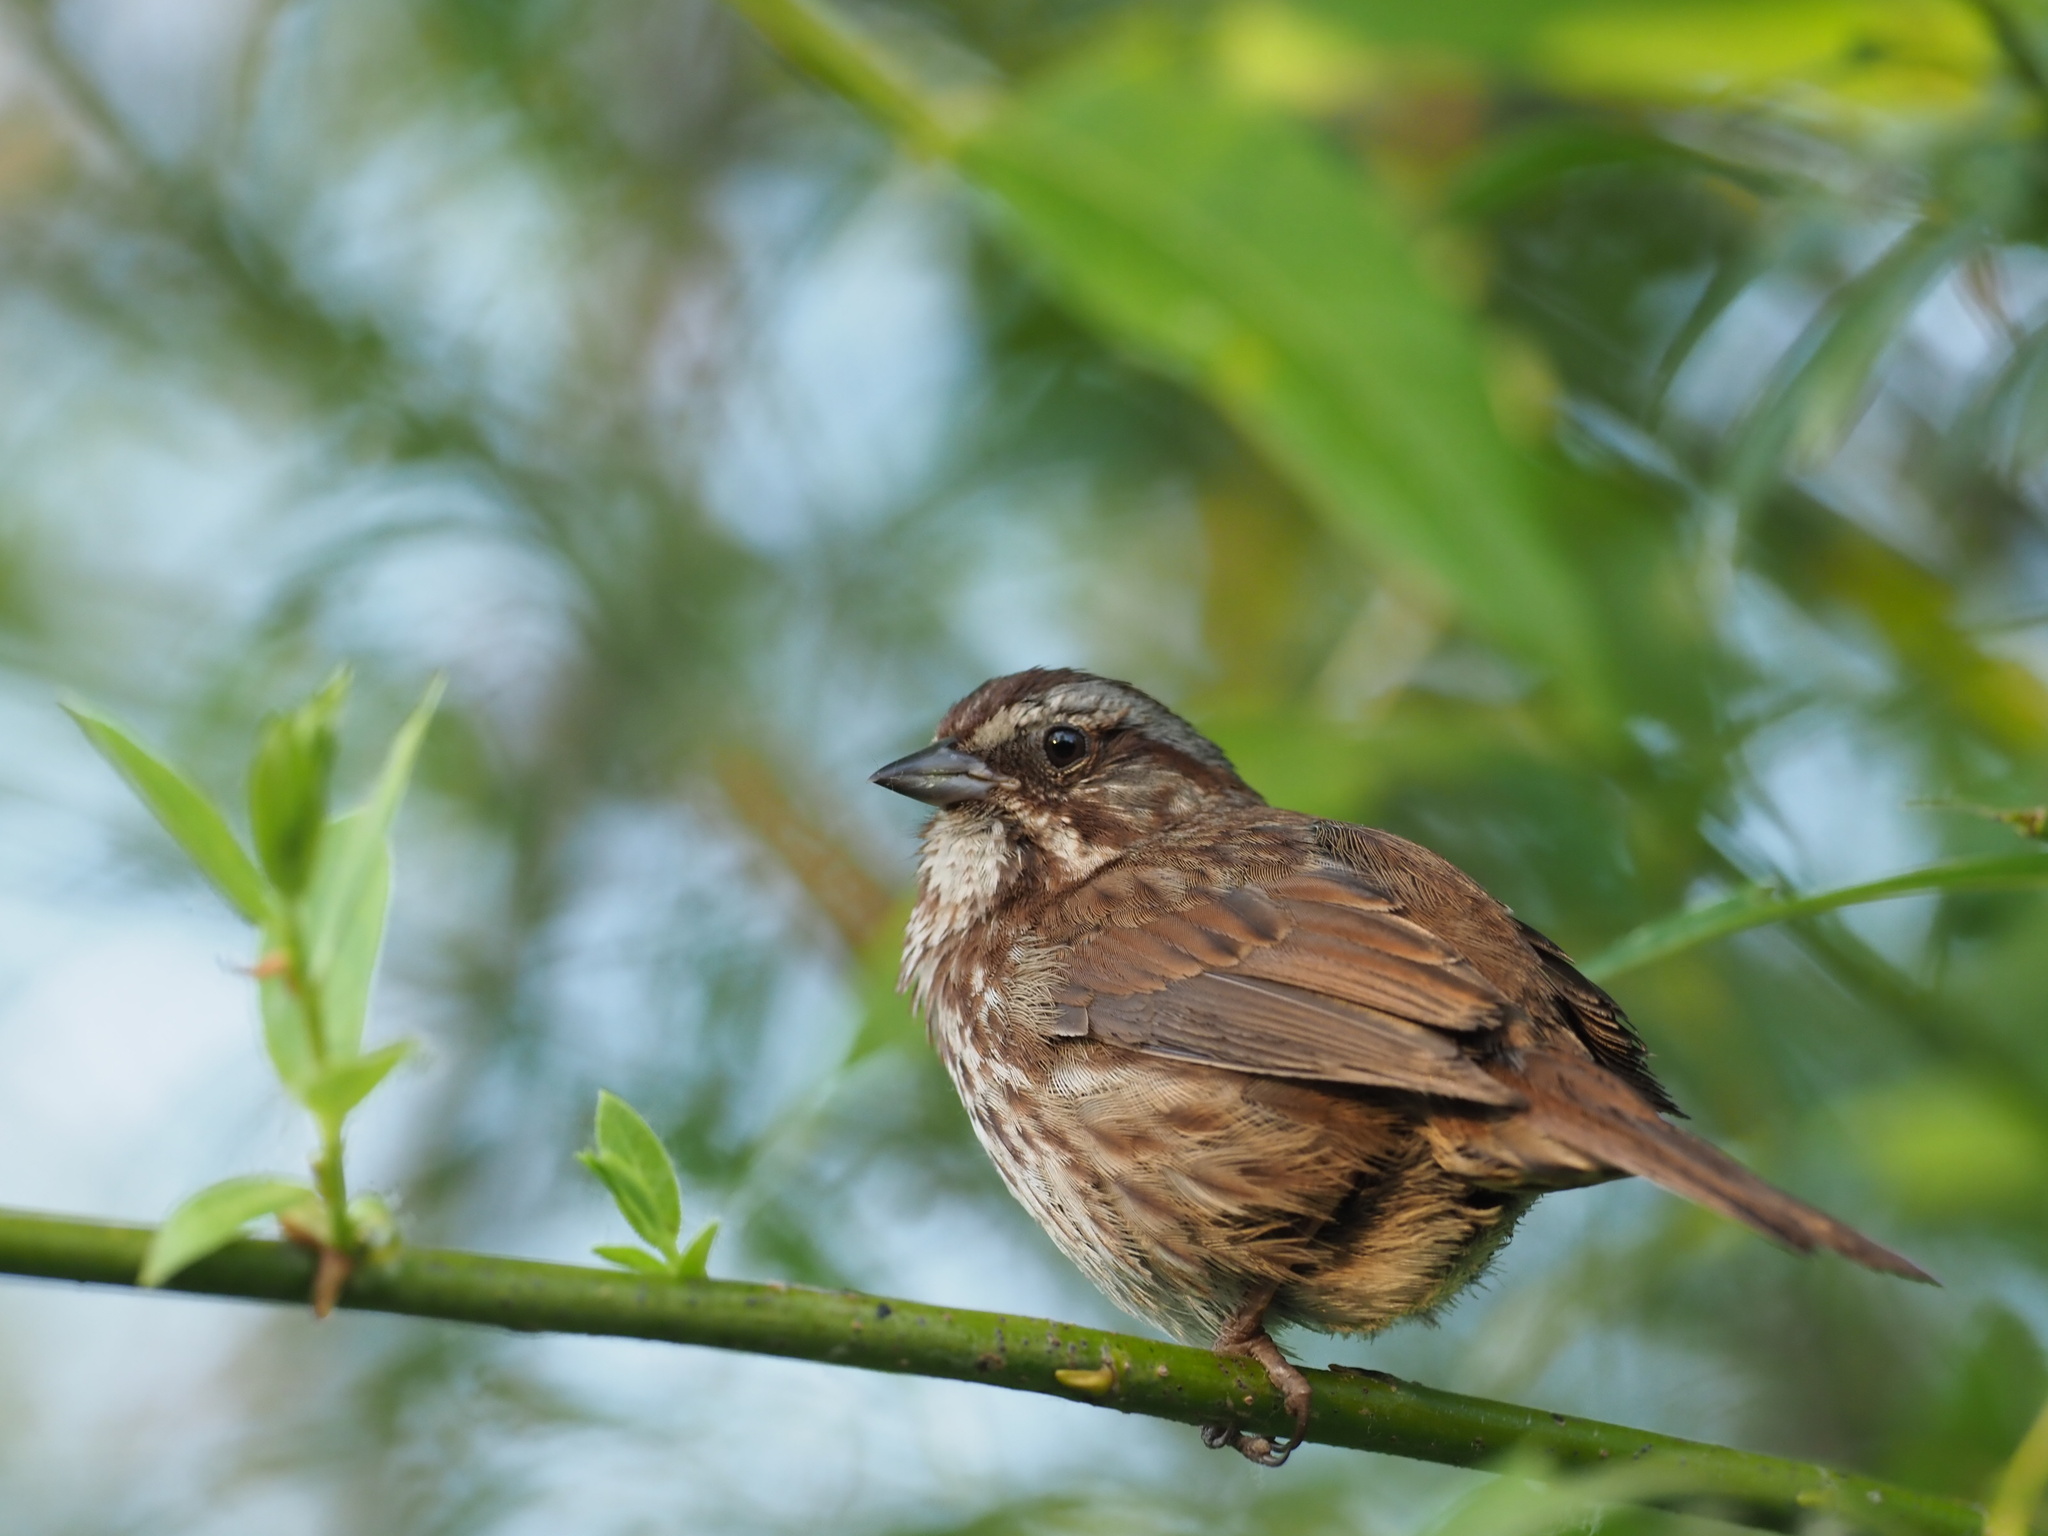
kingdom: Animalia
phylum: Chordata
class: Aves
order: Passeriformes
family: Passerellidae
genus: Melospiza
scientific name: Melospiza melodia
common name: Song sparrow
